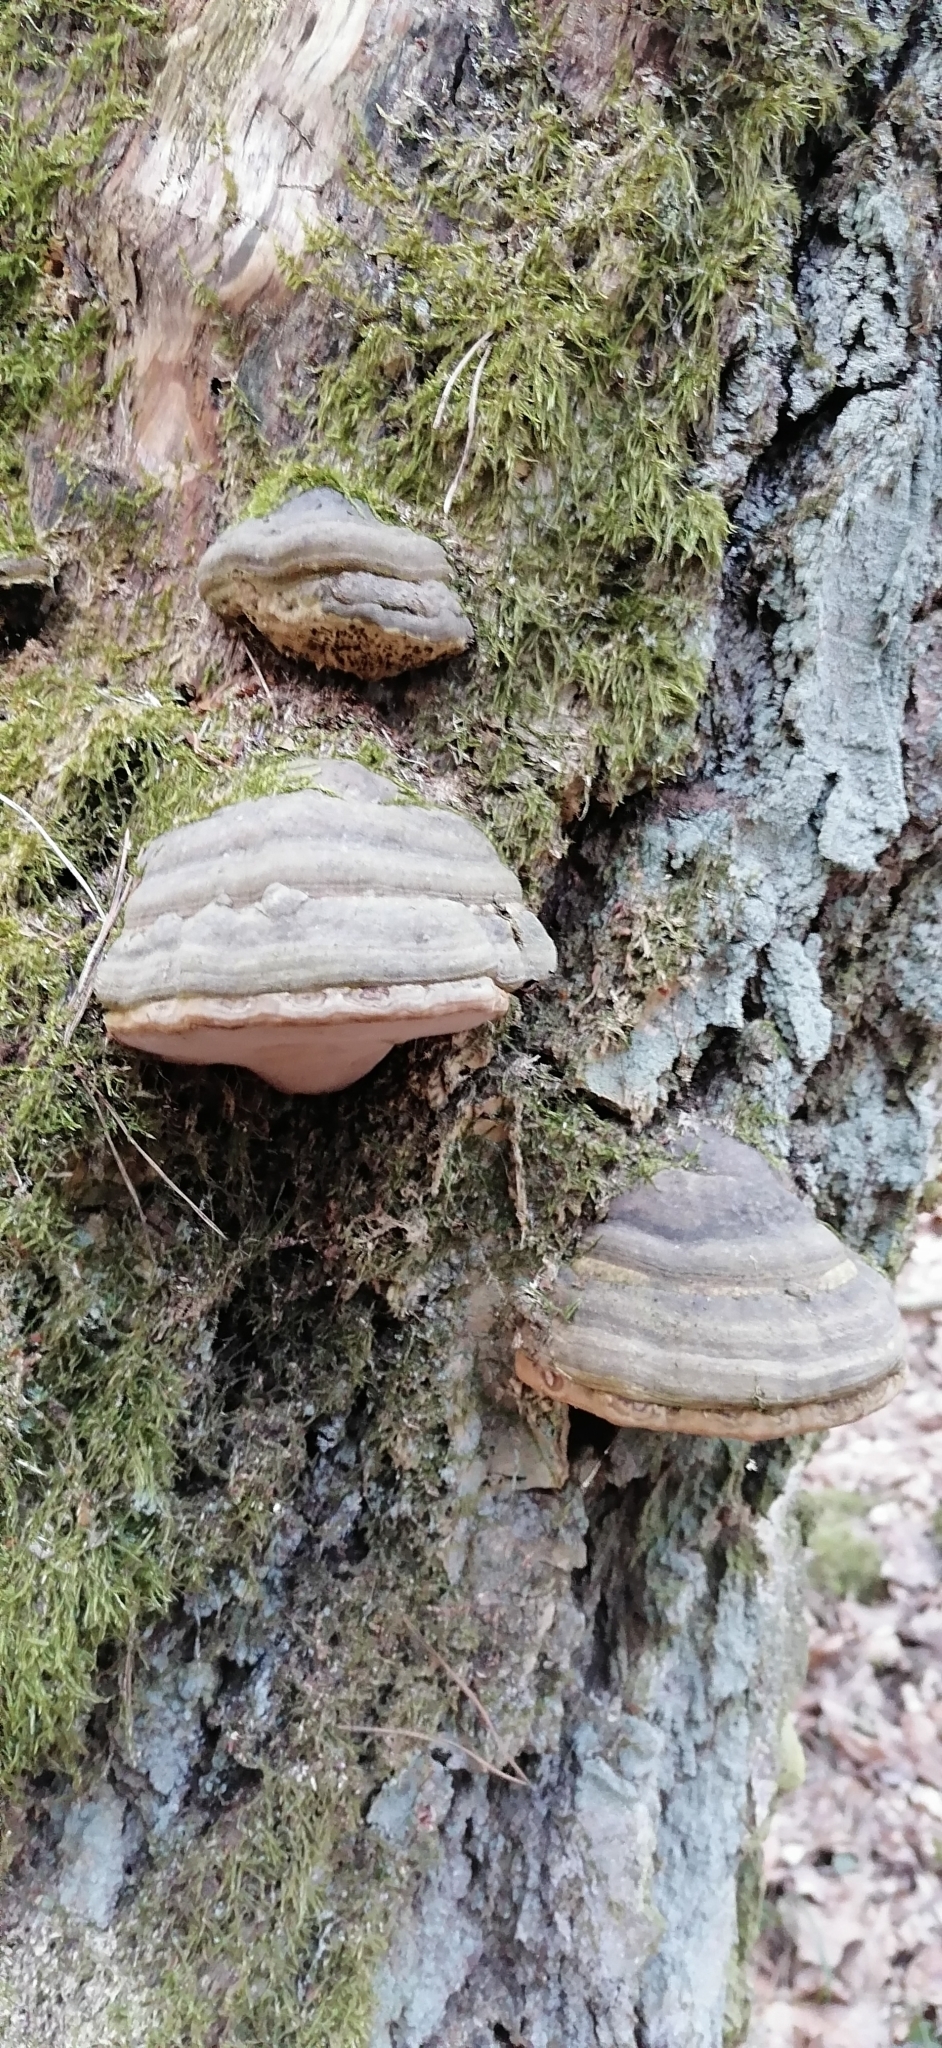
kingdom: Fungi
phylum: Basidiomycota
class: Agaricomycetes
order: Polyporales
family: Polyporaceae
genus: Fomes
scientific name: Fomes fomentarius
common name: Hoof fungus
